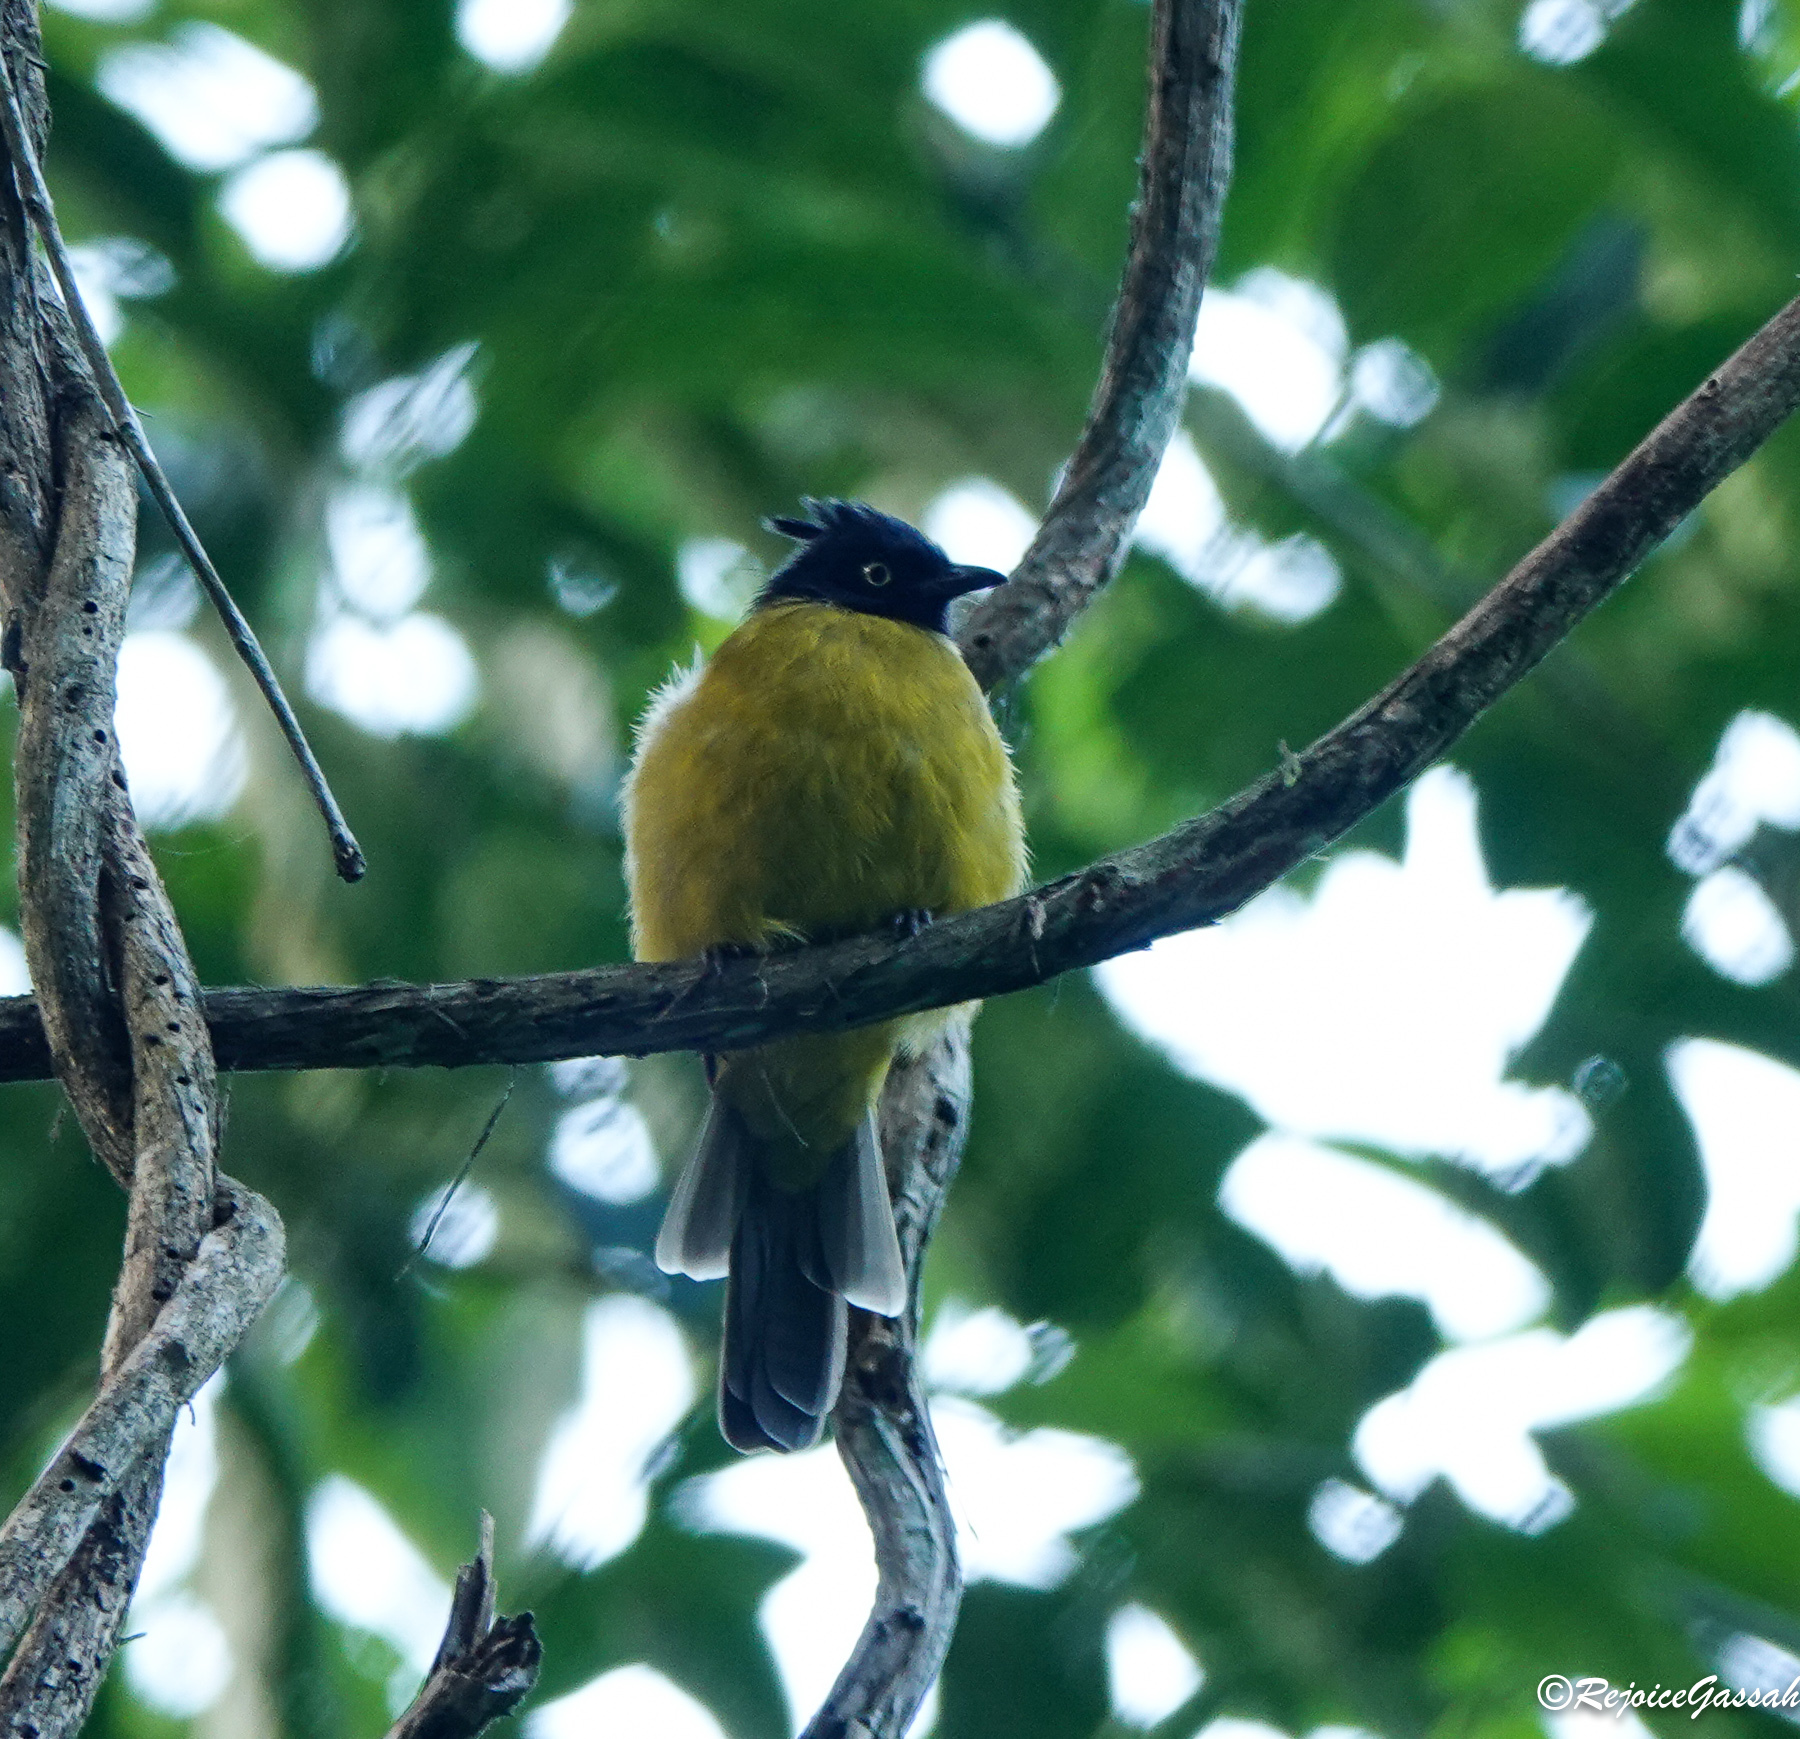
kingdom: Animalia
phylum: Chordata
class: Aves
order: Passeriformes
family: Pycnonotidae
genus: Pycnonotus
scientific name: Pycnonotus flaviventris
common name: Black-crested bulbul
